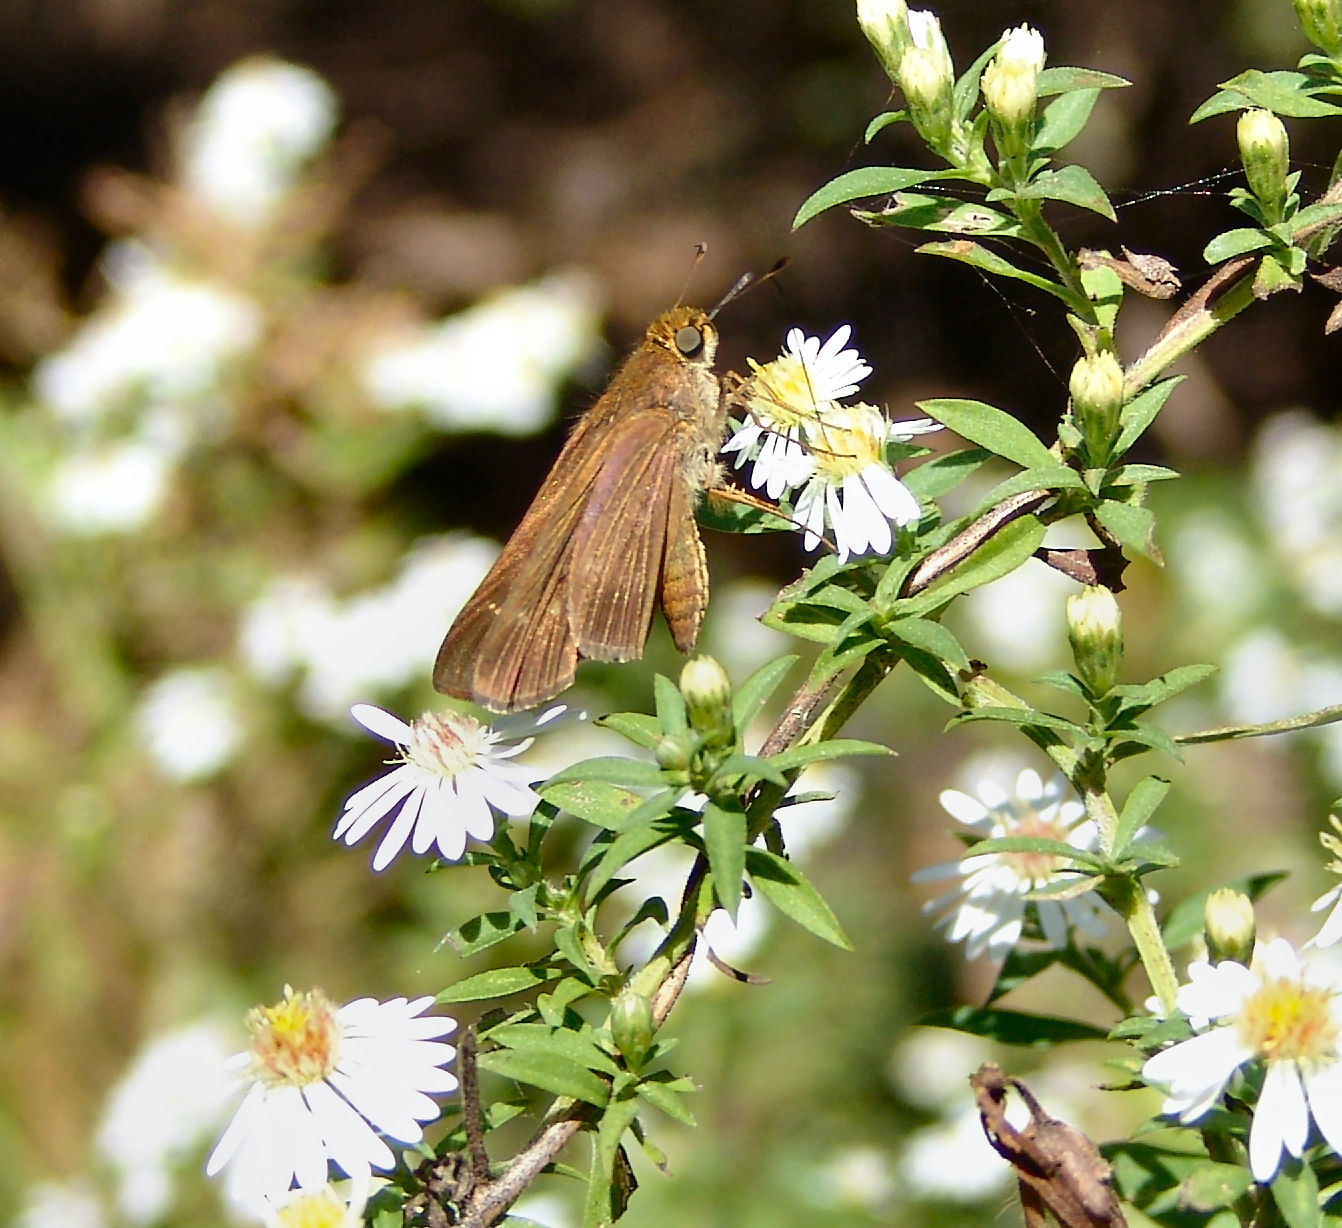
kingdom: Animalia
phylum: Arthropoda
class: Insecta
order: Lepidoptera
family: Hesperiidae
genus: Panoquina
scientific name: Panoquina ocola
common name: Ocola skipper
